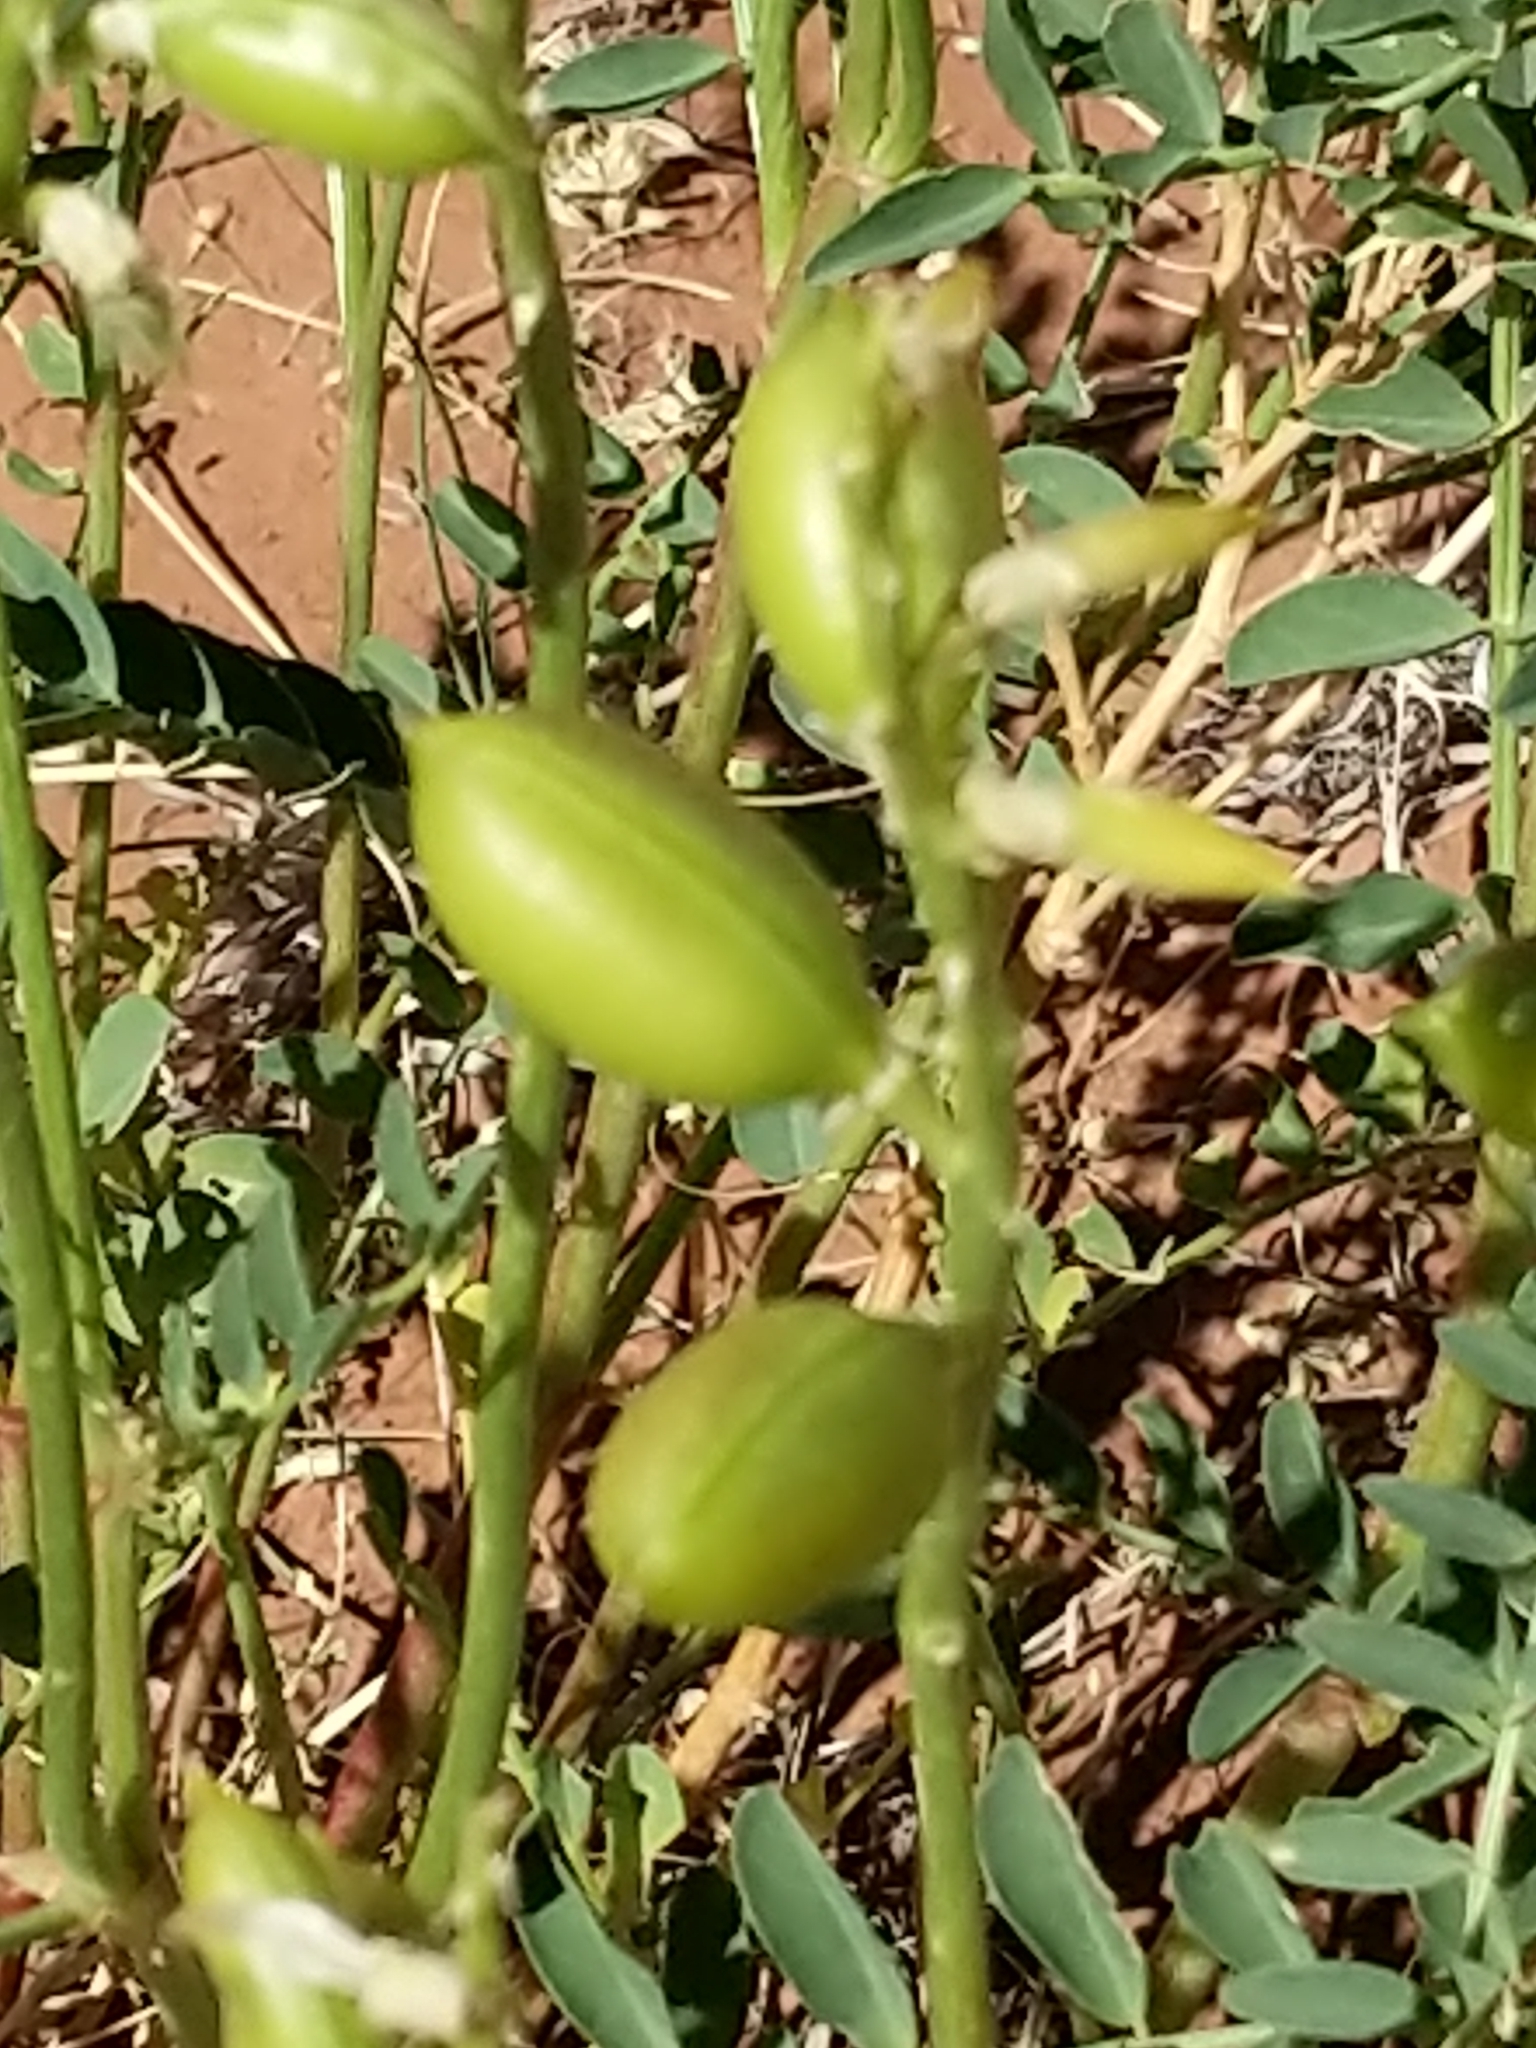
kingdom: Plantae
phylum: Tracheophyta
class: Magnoliopsida
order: Fabales
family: Fabaceae
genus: Astragalus
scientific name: Astragalus praelongus
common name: Stinking milk-vetch
